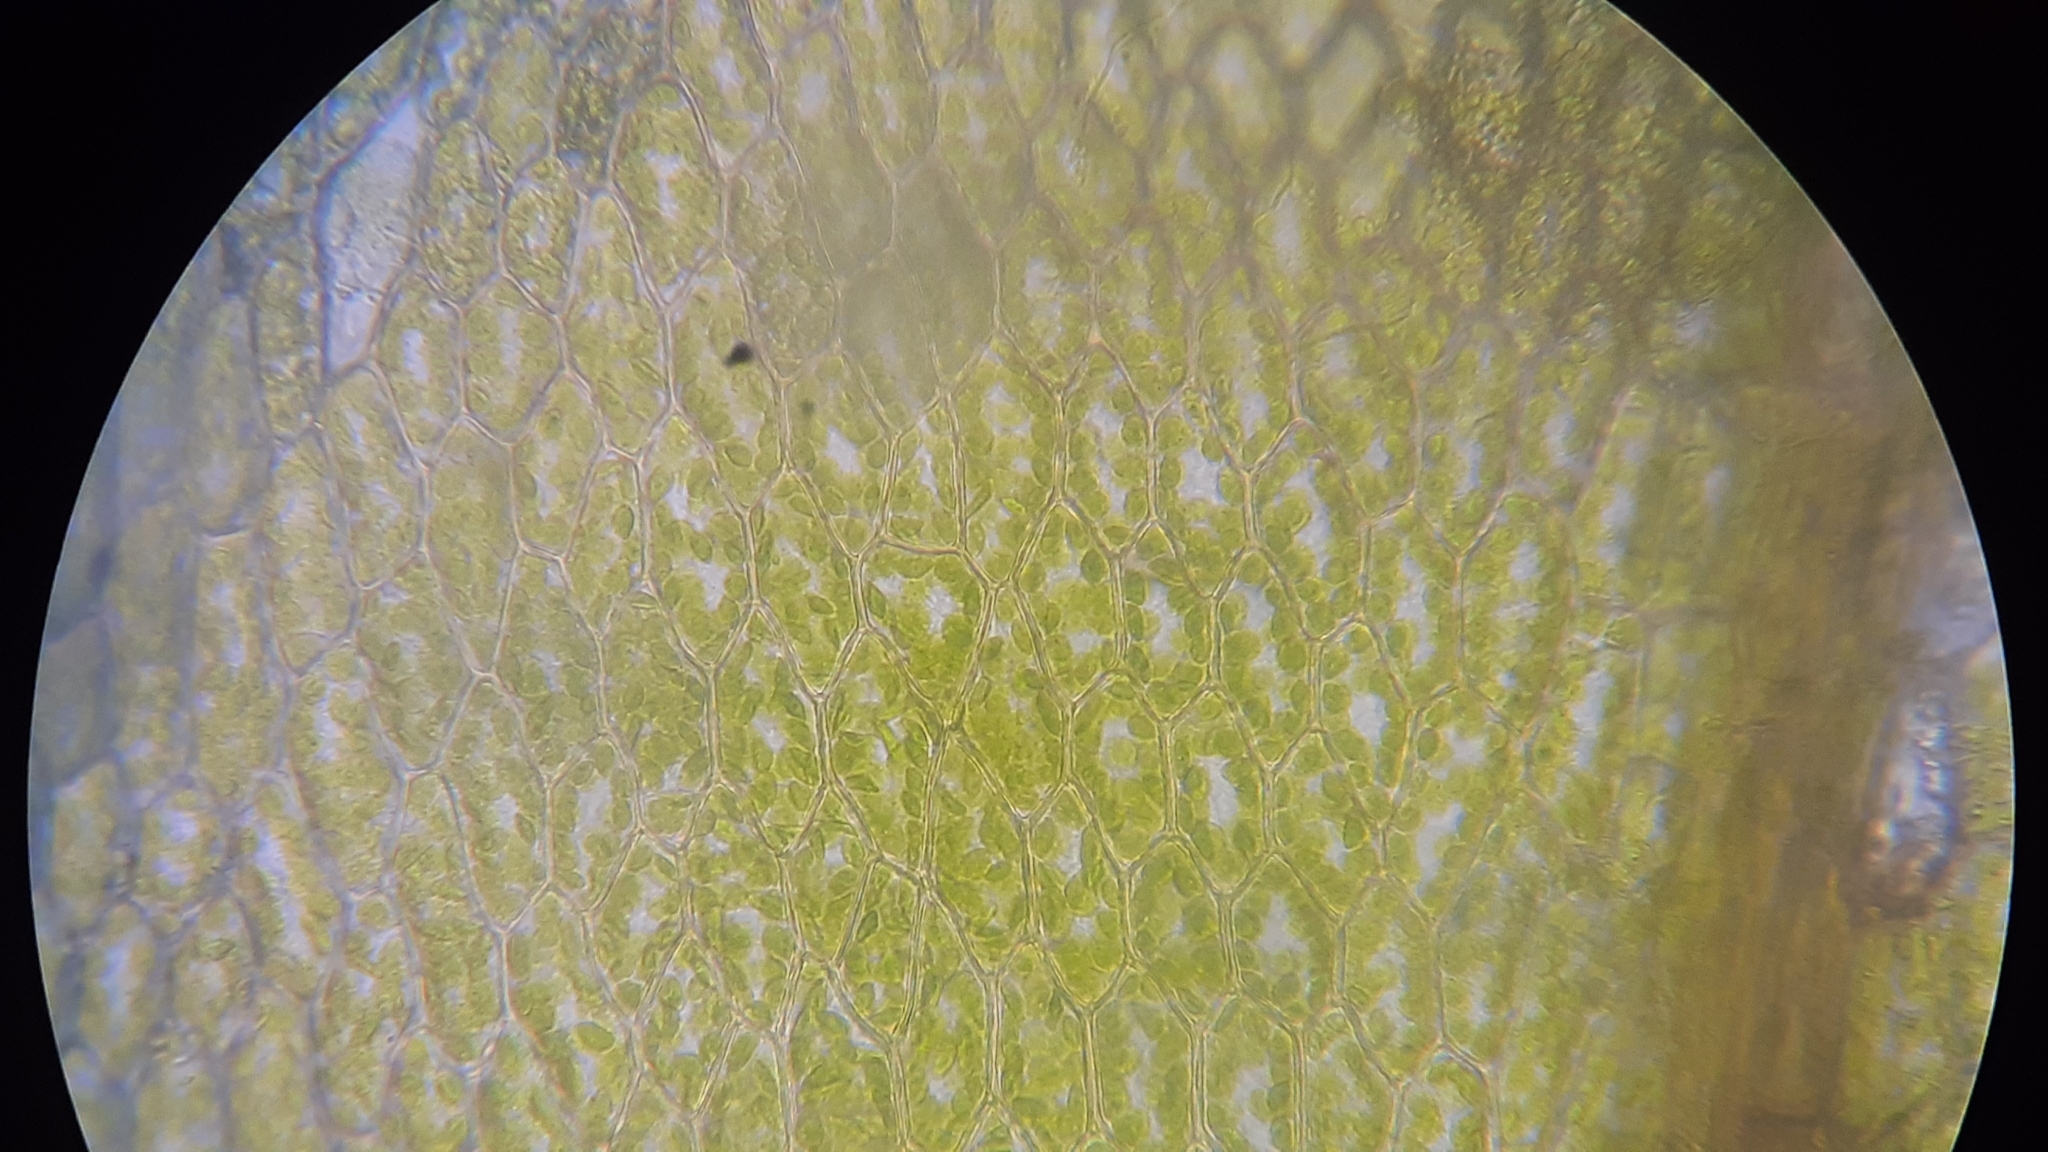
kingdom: Plantae
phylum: Bryophyta
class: Bryopsida
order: Bryales
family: Bryaceae
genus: Rosulabryum
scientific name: Rosulabryum moravicum
